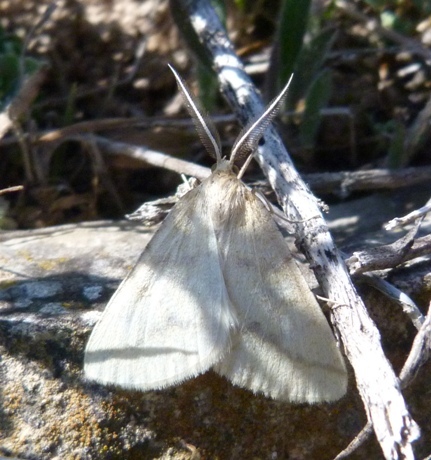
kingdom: Animalia
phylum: Arthropoda
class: Insecta
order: Lepidoptera
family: Geometridae
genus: Aspitates
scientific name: Aspitates ochrearia
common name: Yellow belle
